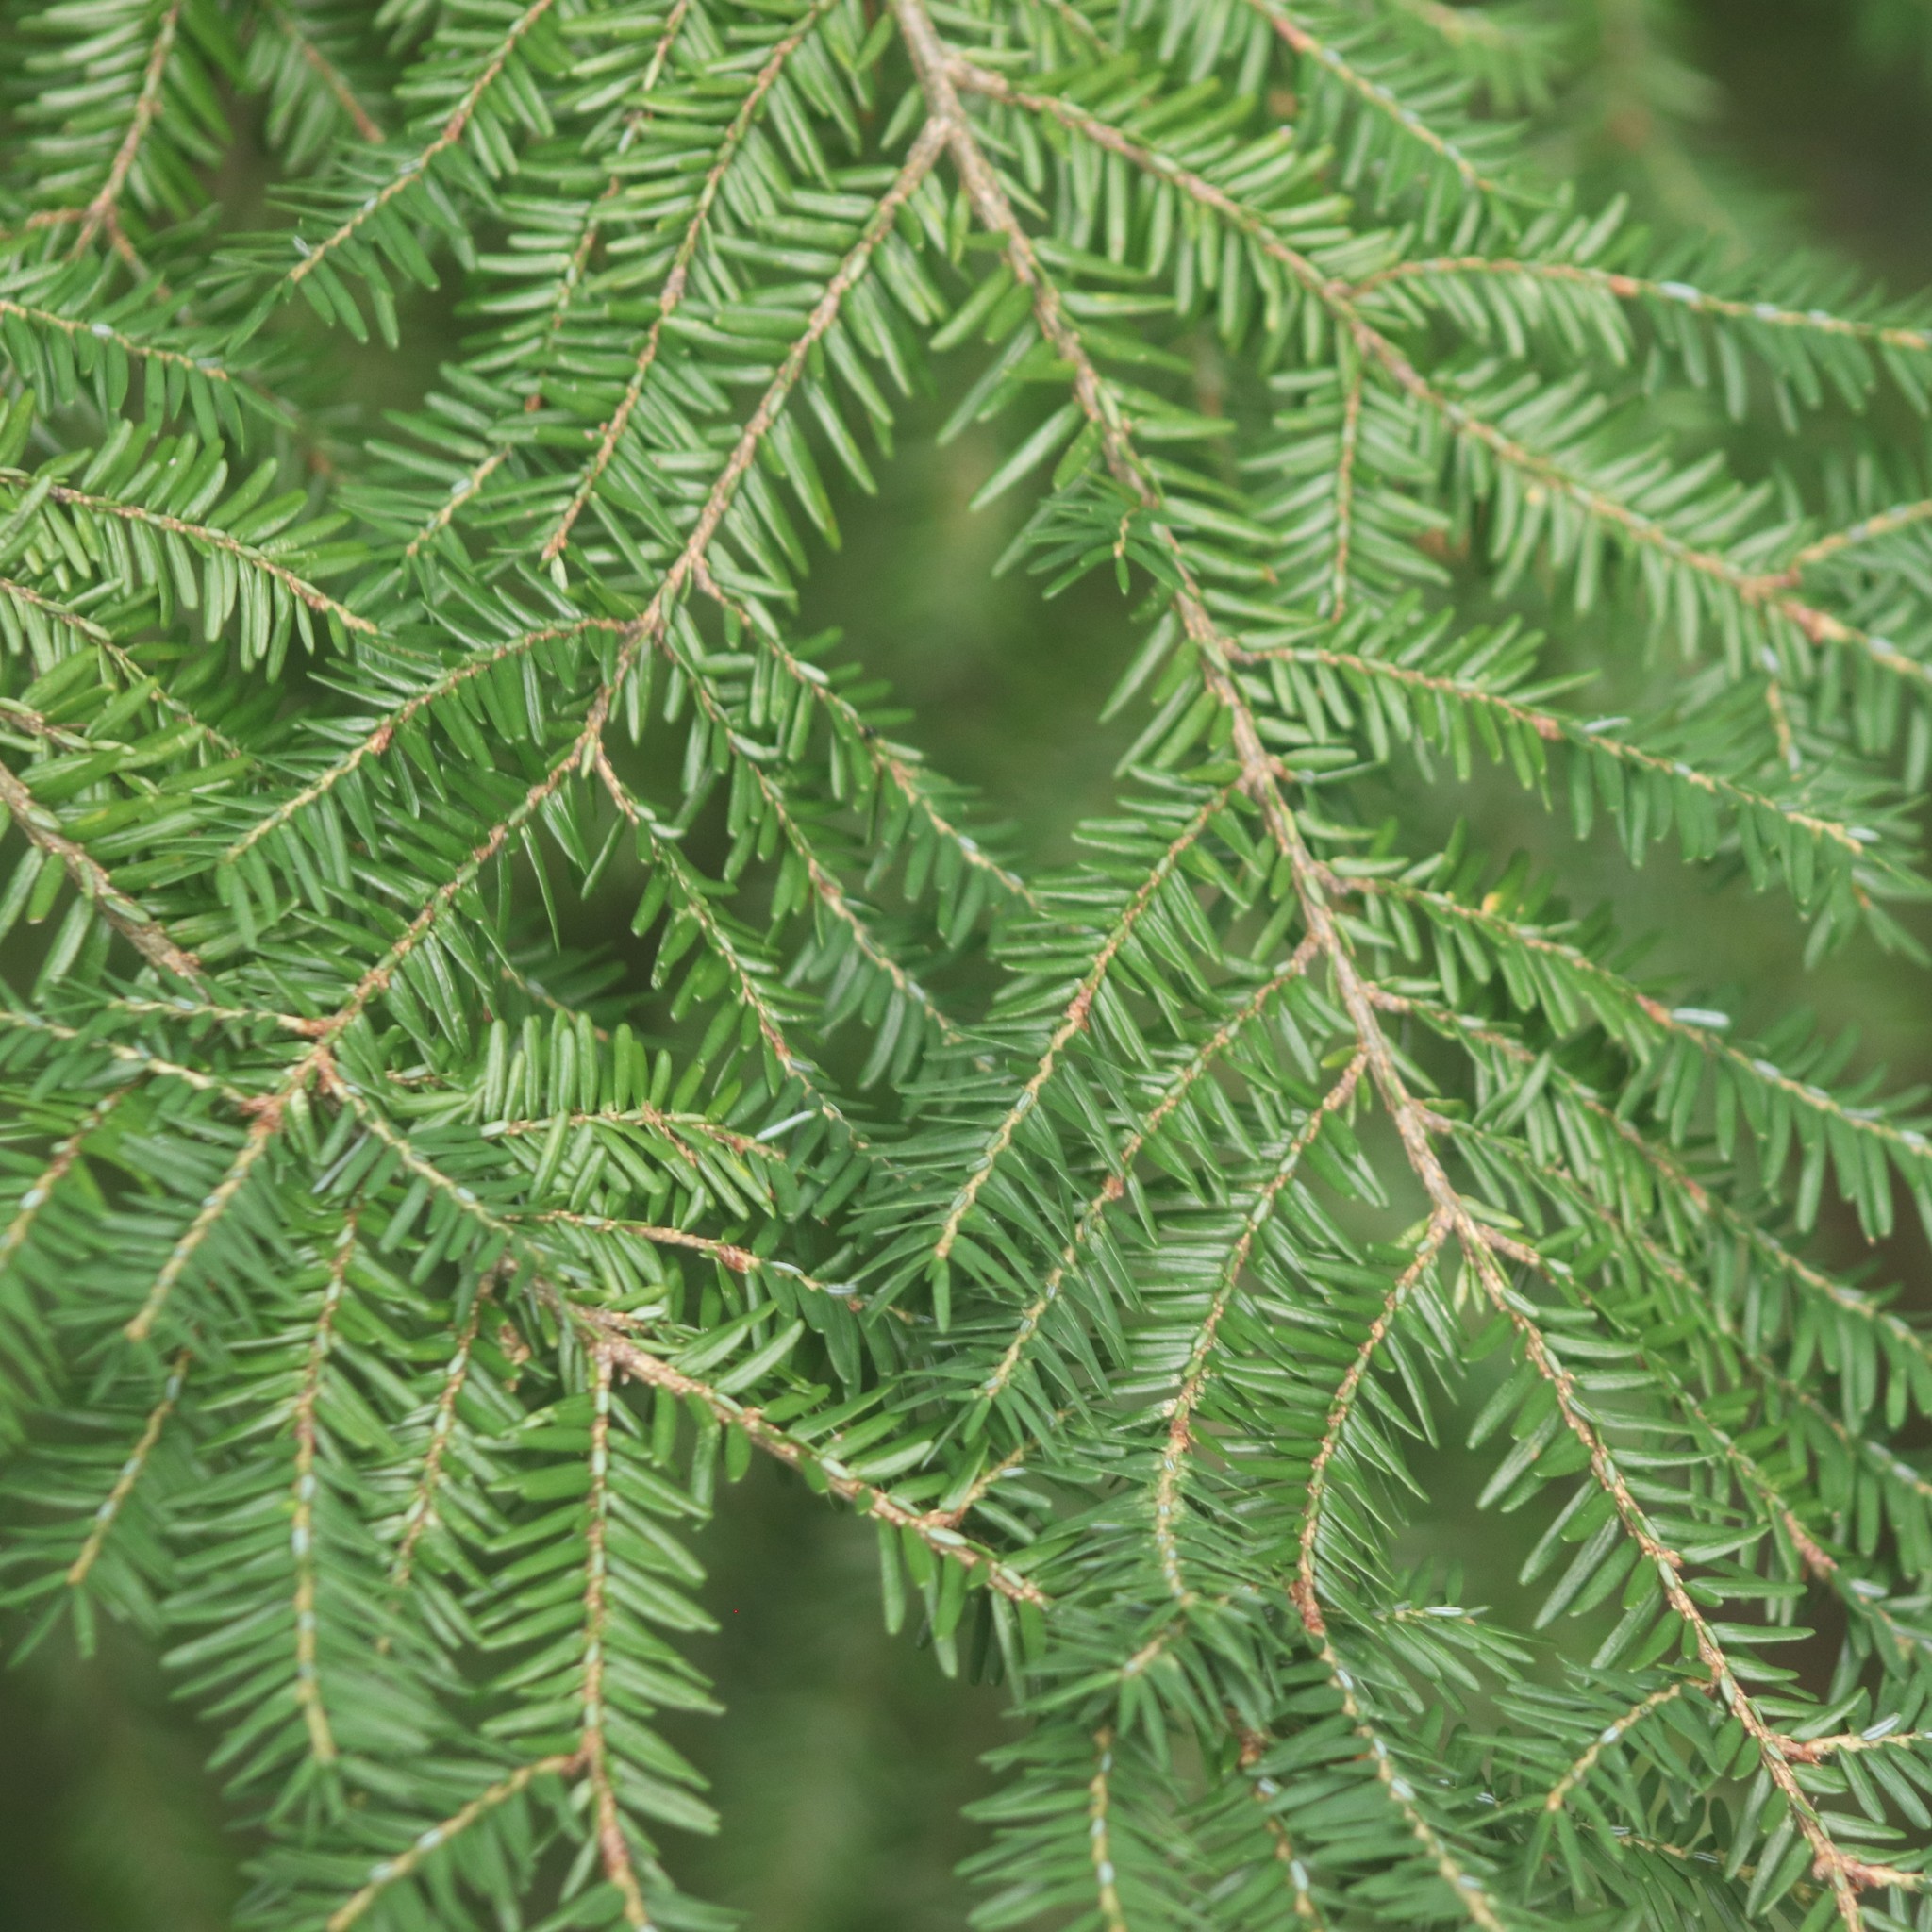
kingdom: Plantae
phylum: Tracheophyta
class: Pinopsida
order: Pinales
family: Pinaceae
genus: Tsuga
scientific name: Tsuga canadensis
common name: Eastern hemlock
